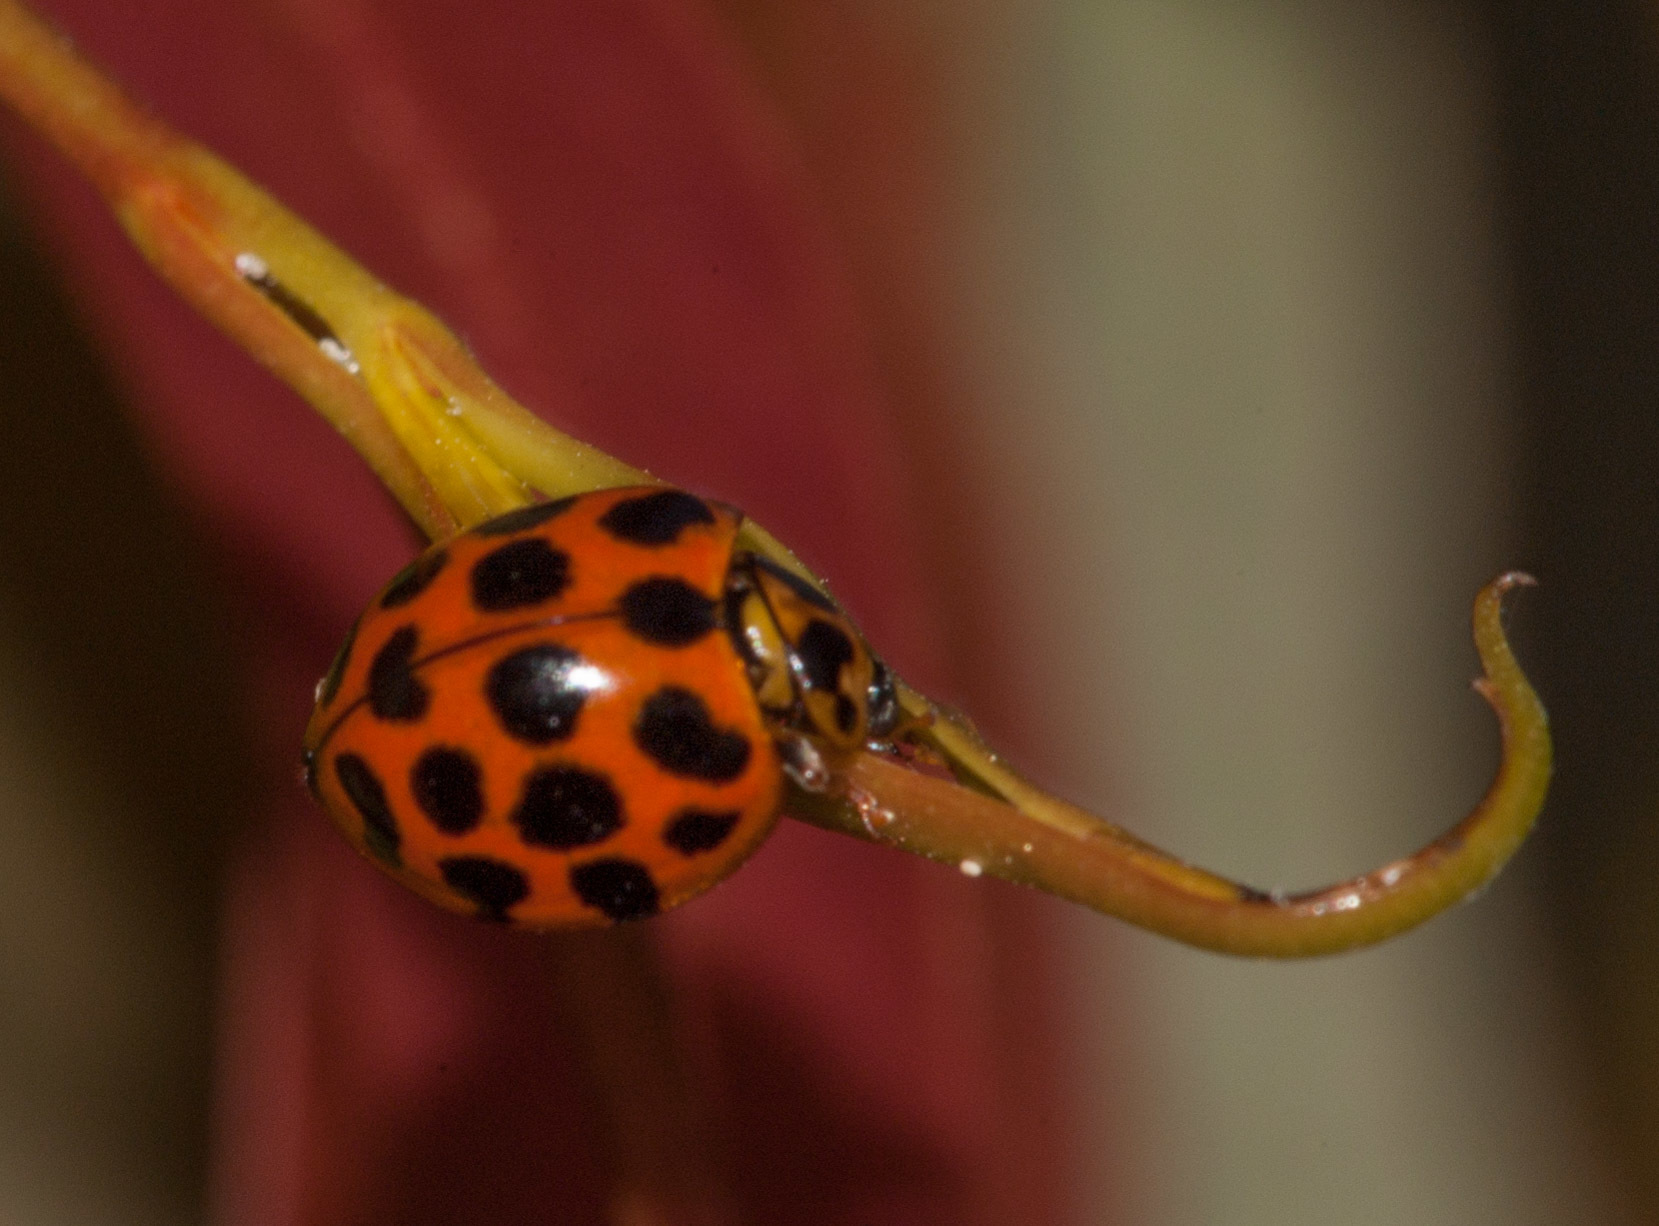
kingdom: Animalia
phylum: Arthropoda
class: Insecta
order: Coleoptera
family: Coccinellidae
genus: Harmonia
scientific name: Harmonia conformis
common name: Common spotted ladybird beetle
